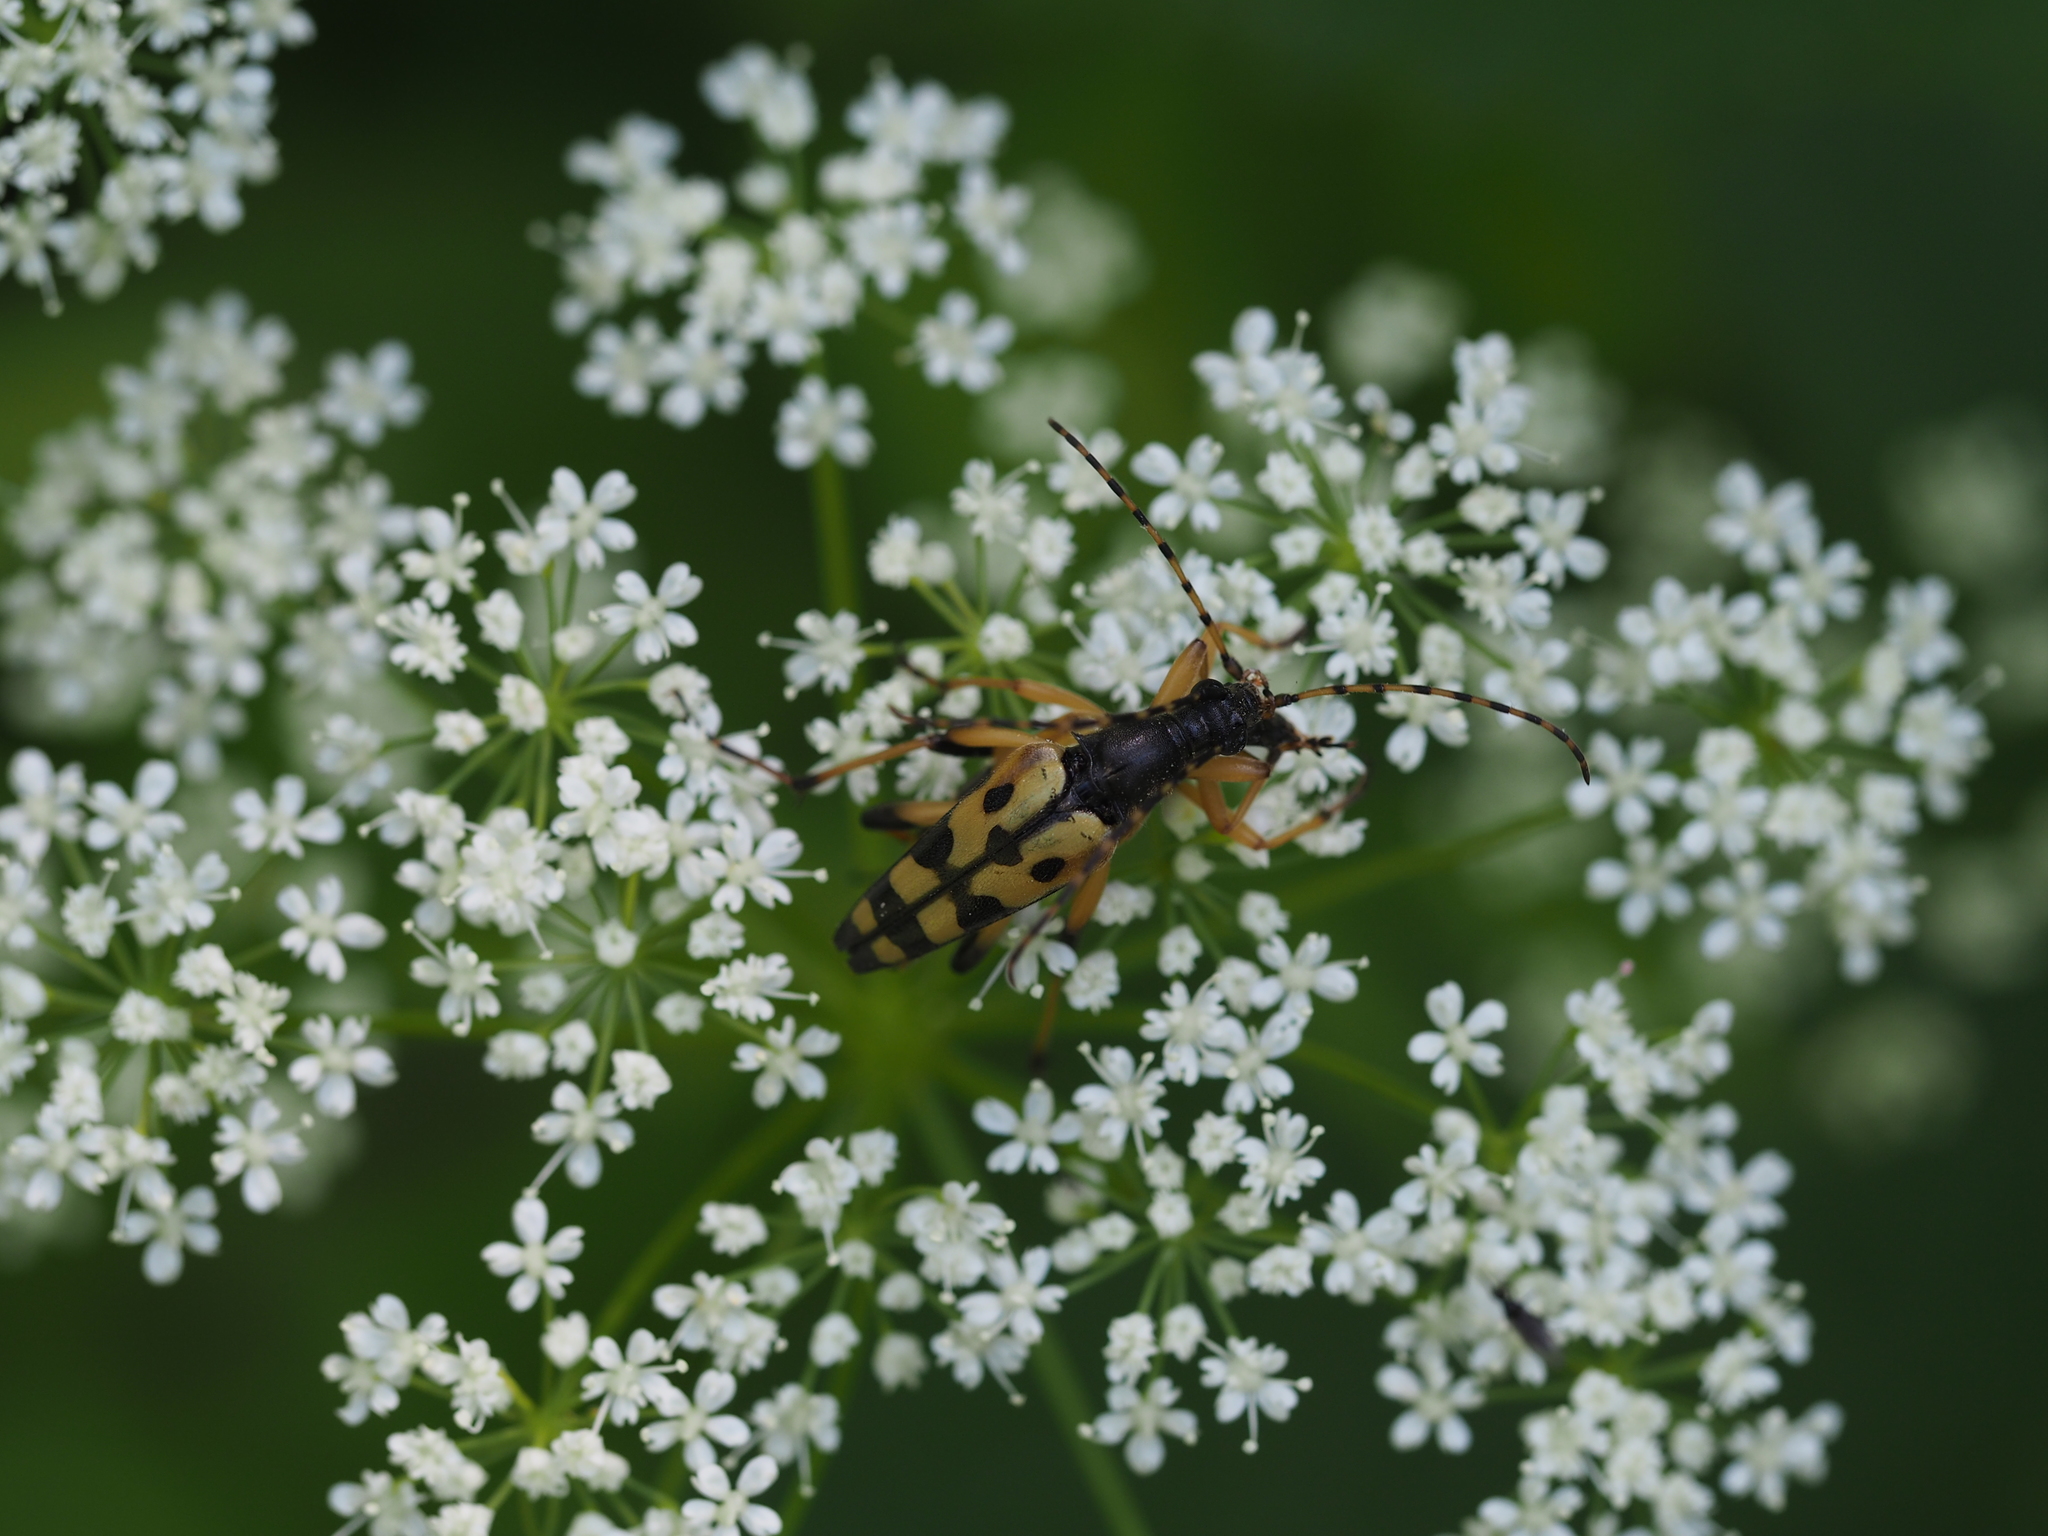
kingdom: Animalia
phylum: Arthropoda
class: Insecta
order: Coleoptera
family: Cerambycidae
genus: Rutpela
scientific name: Rutpela maculata
